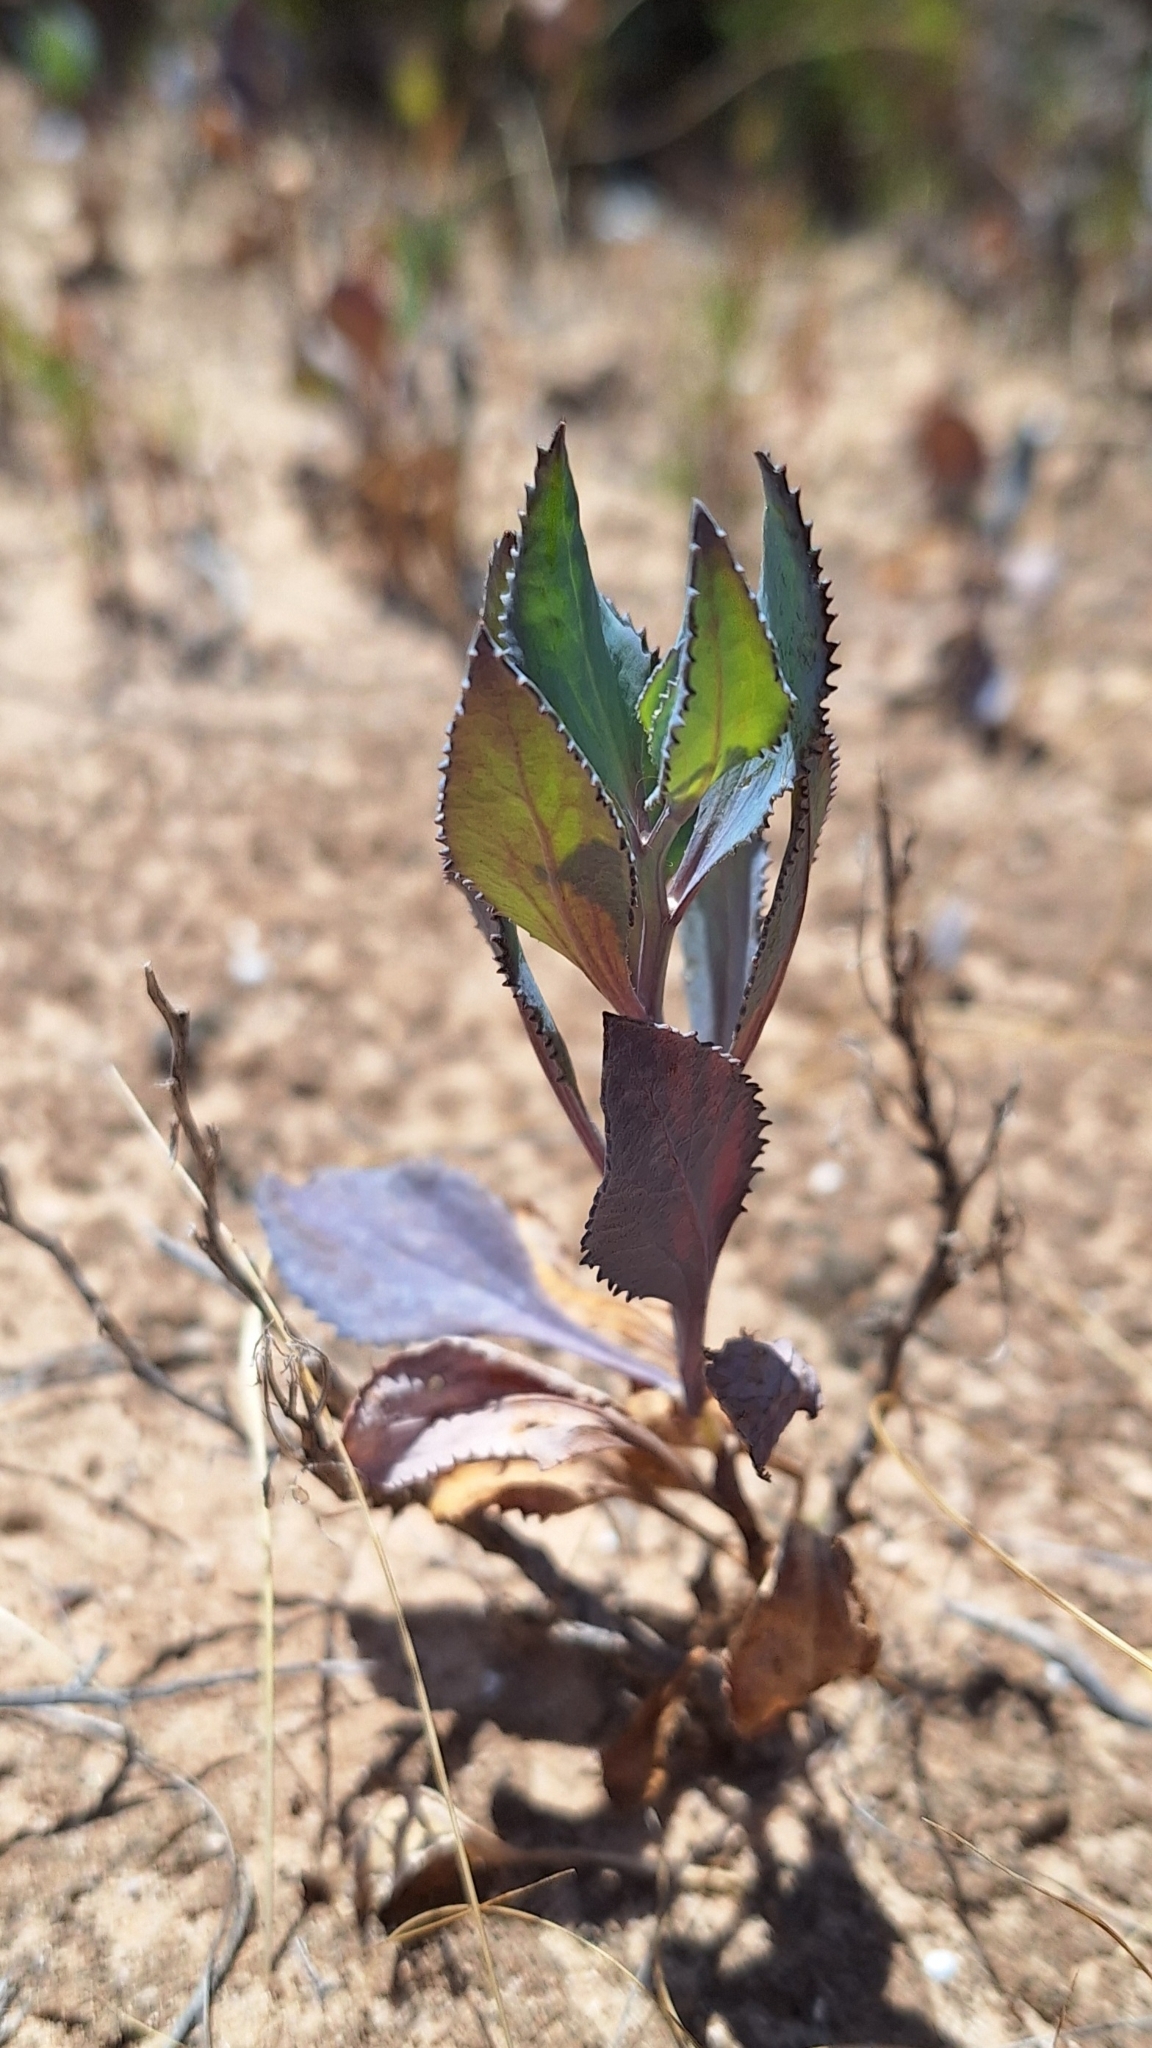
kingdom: Plantae
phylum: Tracheophyta
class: Magnoliopsida
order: Asterales
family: Goodeniaceae
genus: Goodenia
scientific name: Goodenia albiflora
